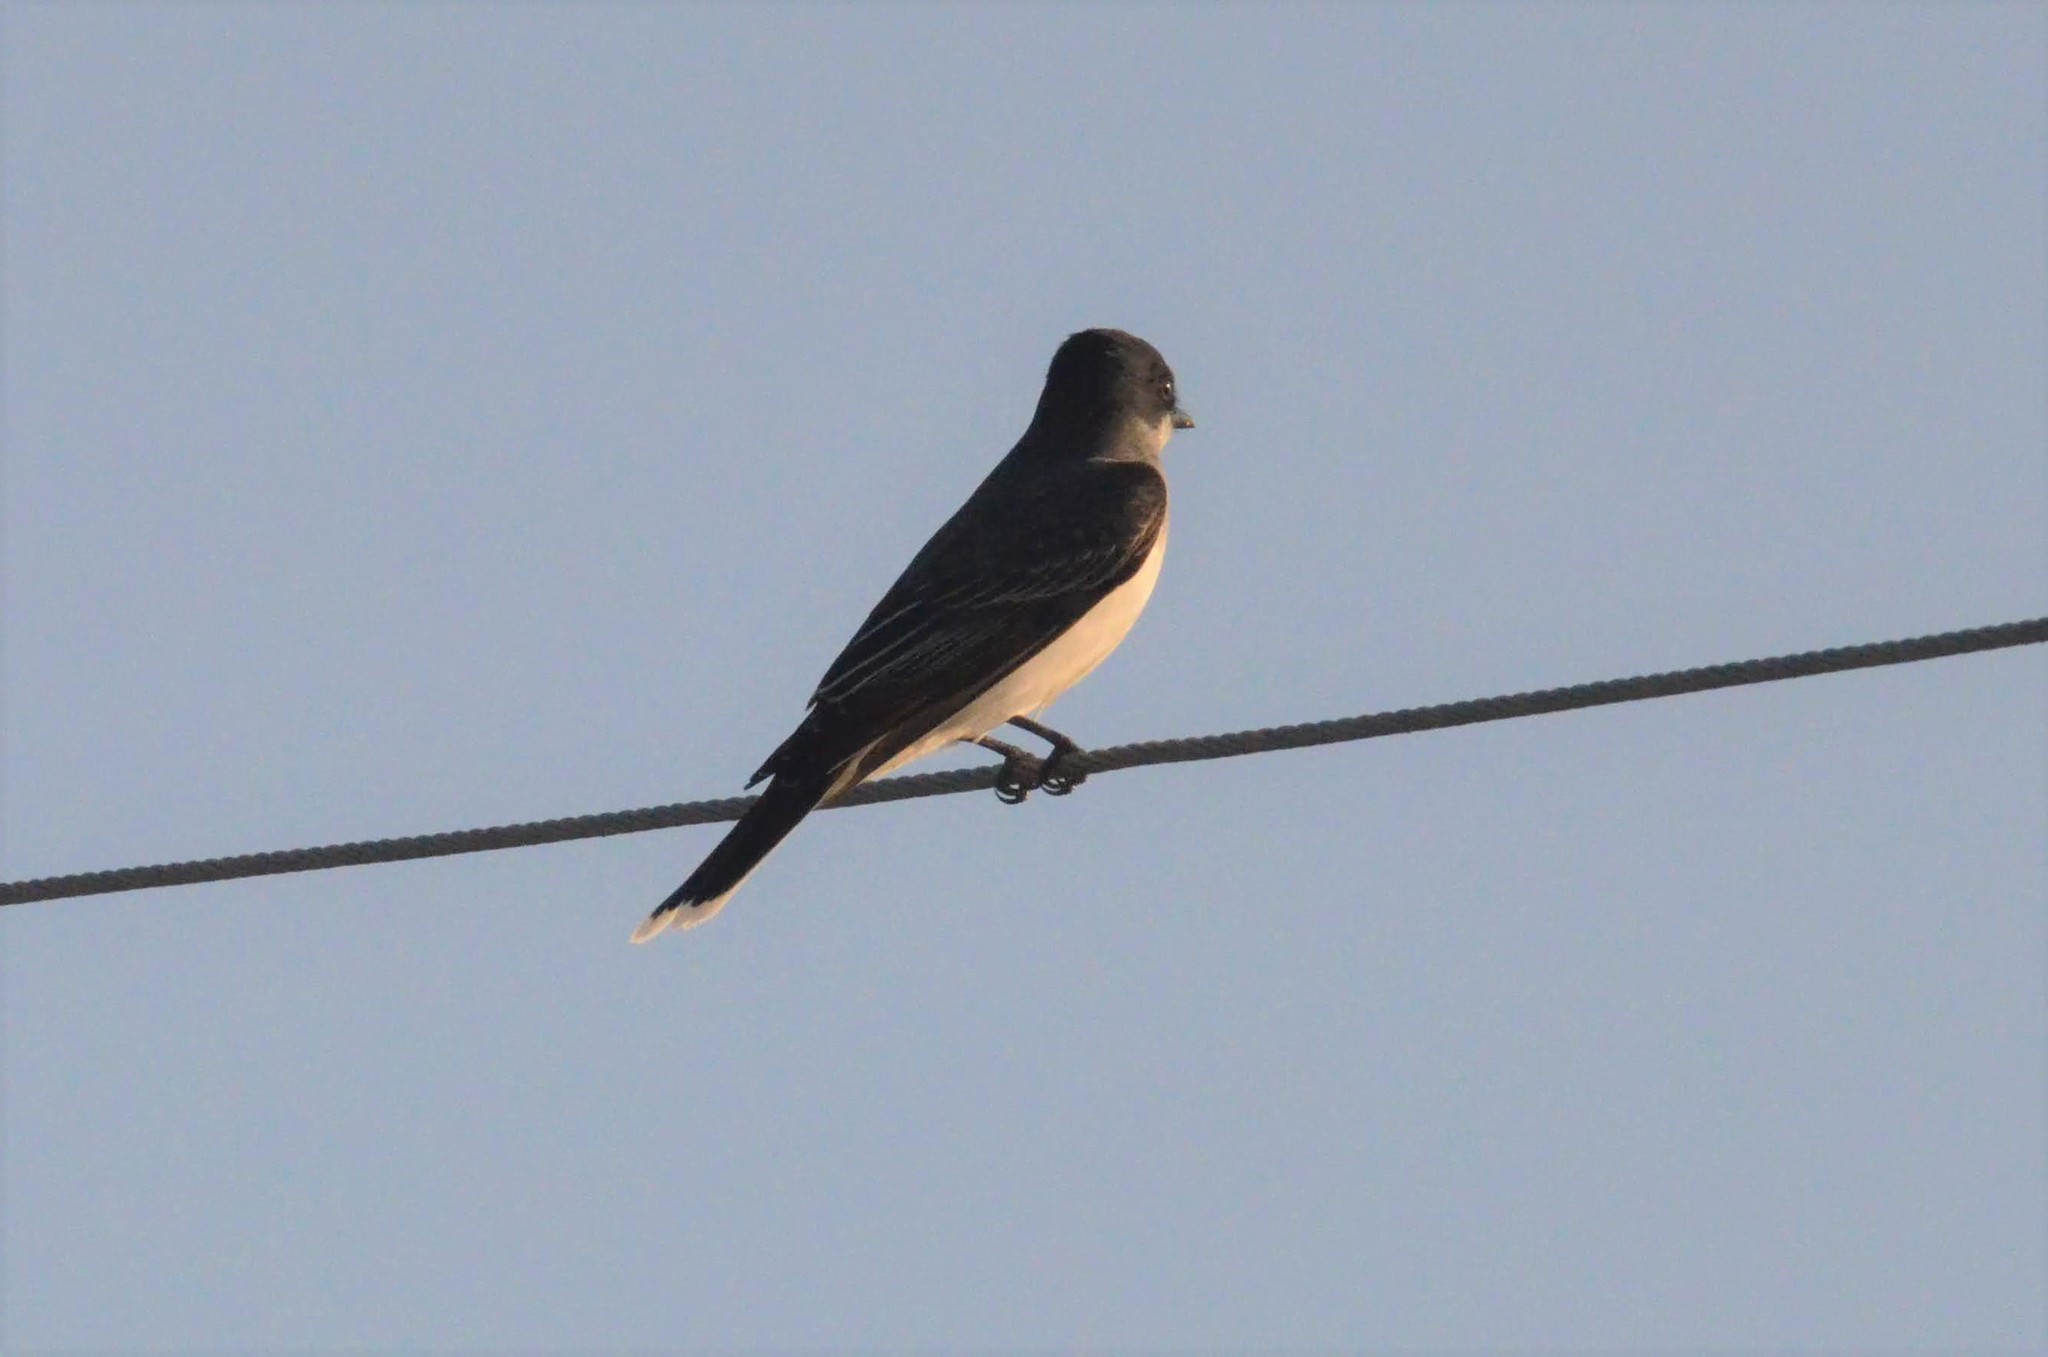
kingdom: Animalia
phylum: Chordata
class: Aves
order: Passeriformes
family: Tyrannidae
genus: Tyrannus
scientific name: Tyrannus tyrannus
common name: Eastern kingbird
